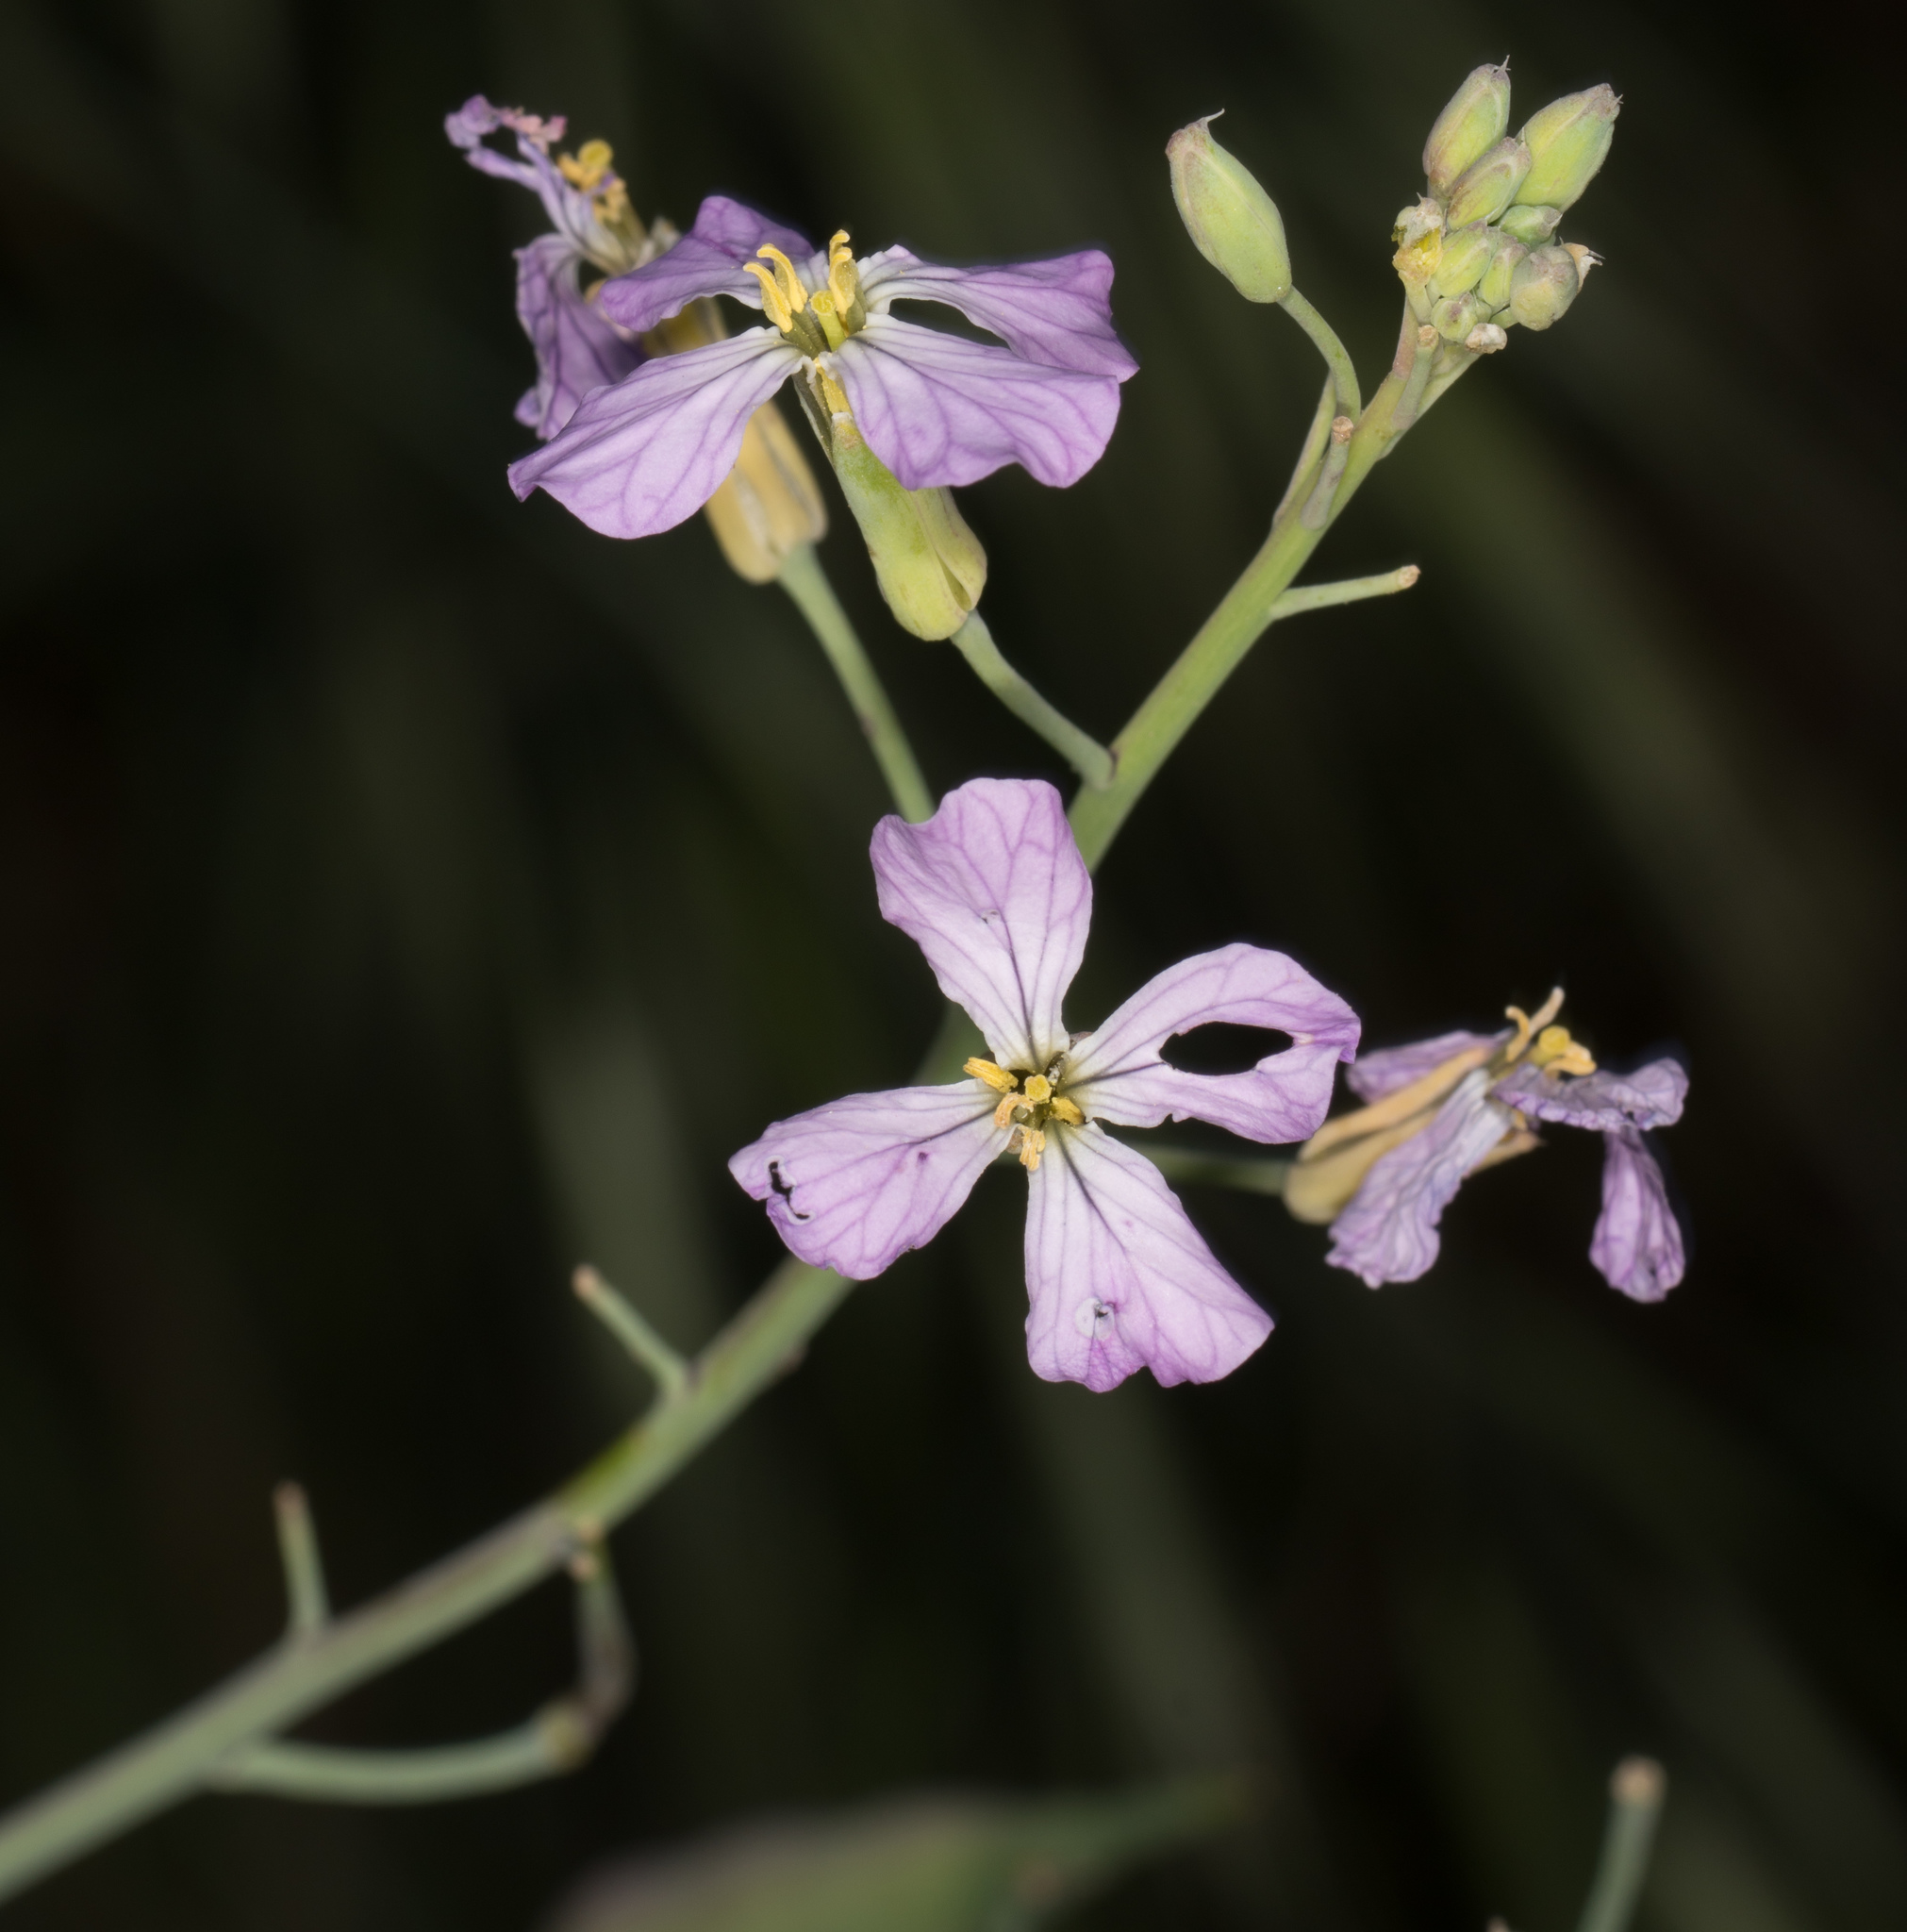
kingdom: Plantae
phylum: Tracheophyta
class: Magnoliopsida
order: Brassicales
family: Brassicaceae
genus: Raphanus
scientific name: Raphanus sativus
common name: Cultivated radish
